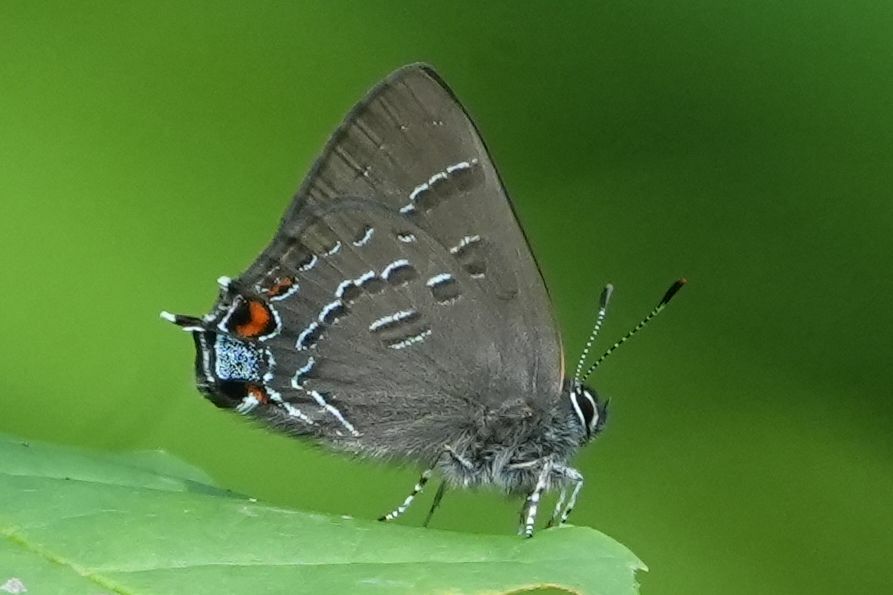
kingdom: Animalia
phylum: Arthropoda
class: Insecta
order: Lepidoptera
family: Lycaenidae
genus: Satyrium
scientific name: Satyrium calanus
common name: Banded hairstreak
